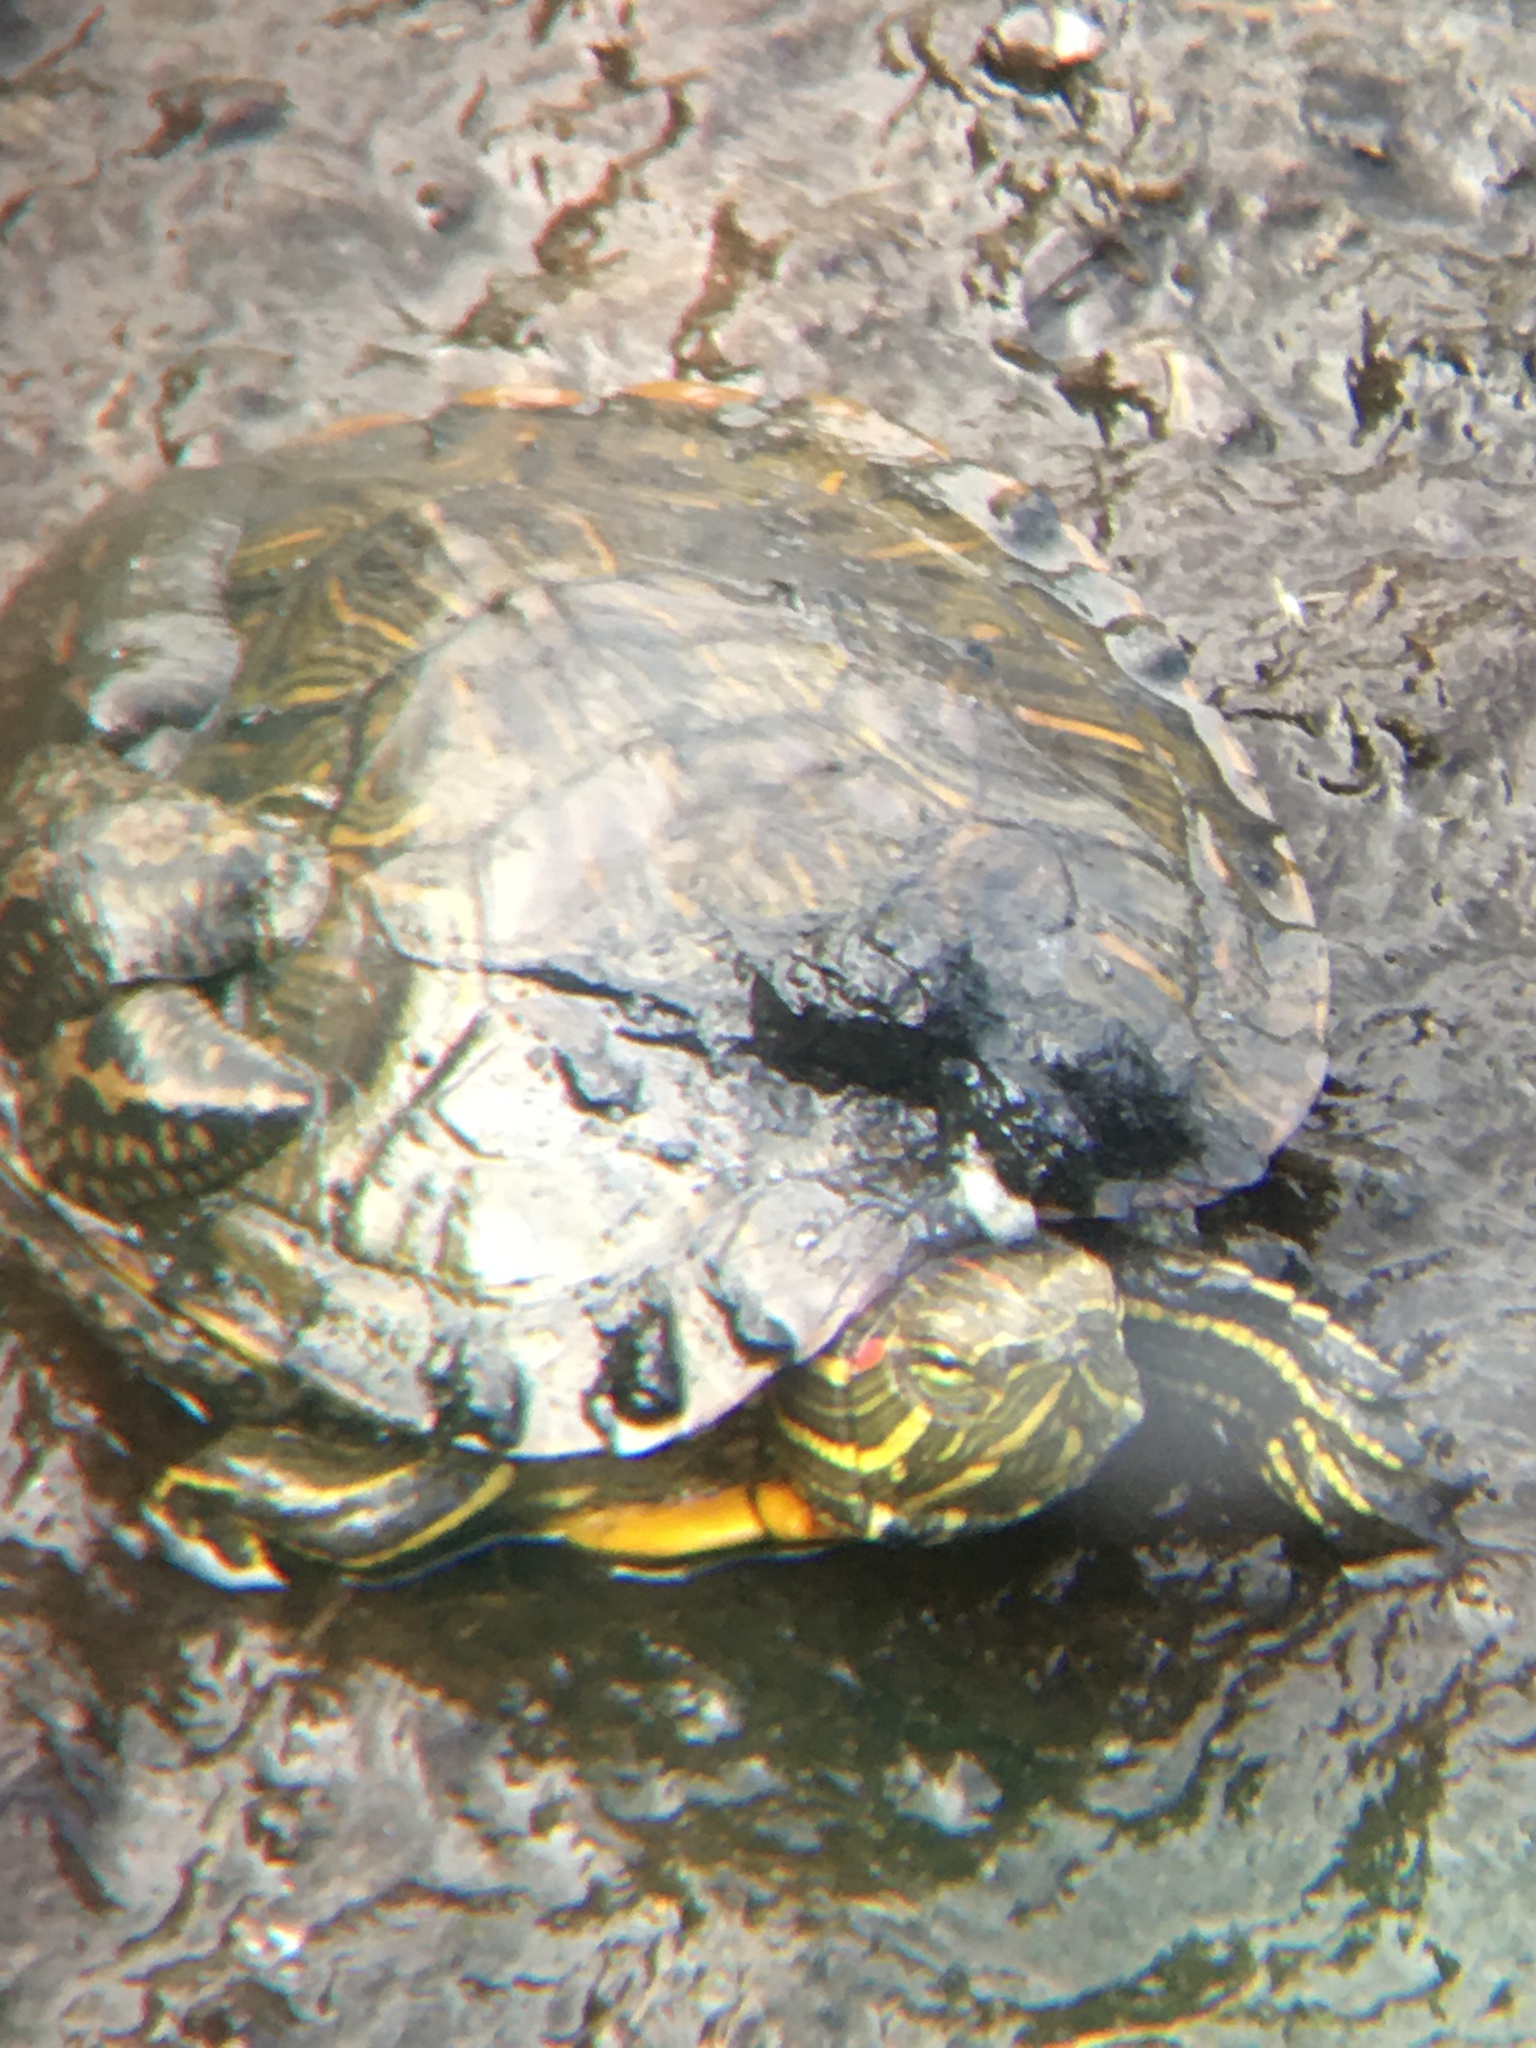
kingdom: Animalia
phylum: Chordata
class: Testudines
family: Emydidae
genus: Trachemys
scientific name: Trachemys scripta
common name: Slider
